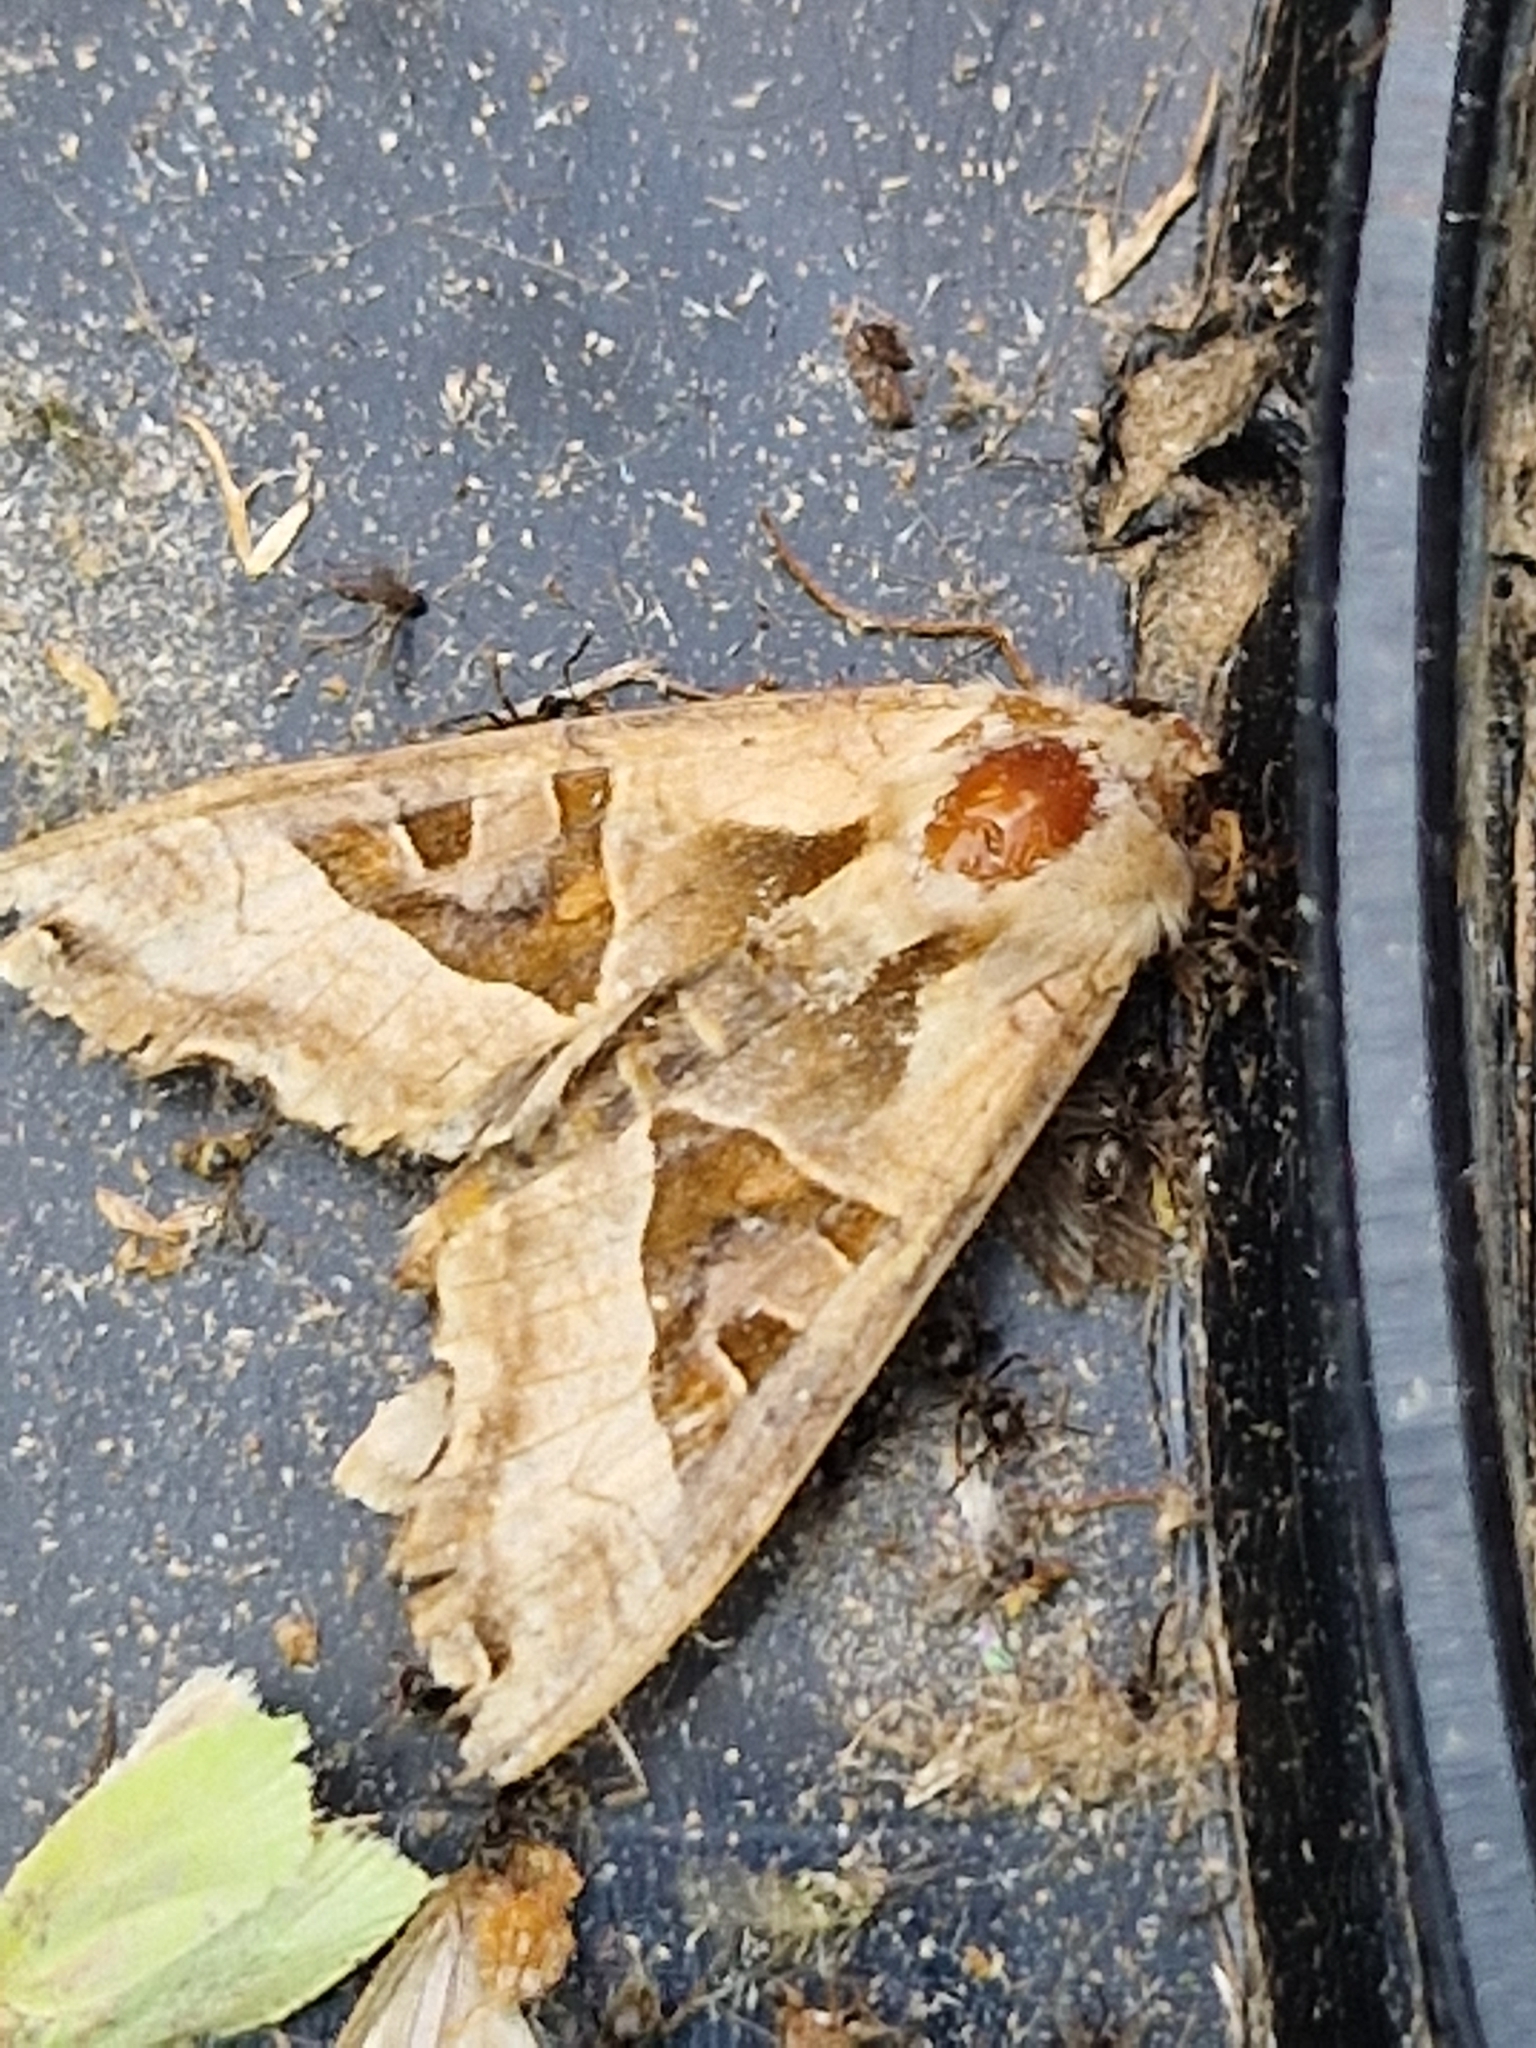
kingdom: Animalia
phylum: Arthropoda
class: Insecta
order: Lepidoptera
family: Noctuidae
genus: Phlogophora
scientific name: Phlogophora meticulosa
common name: Angle shades
